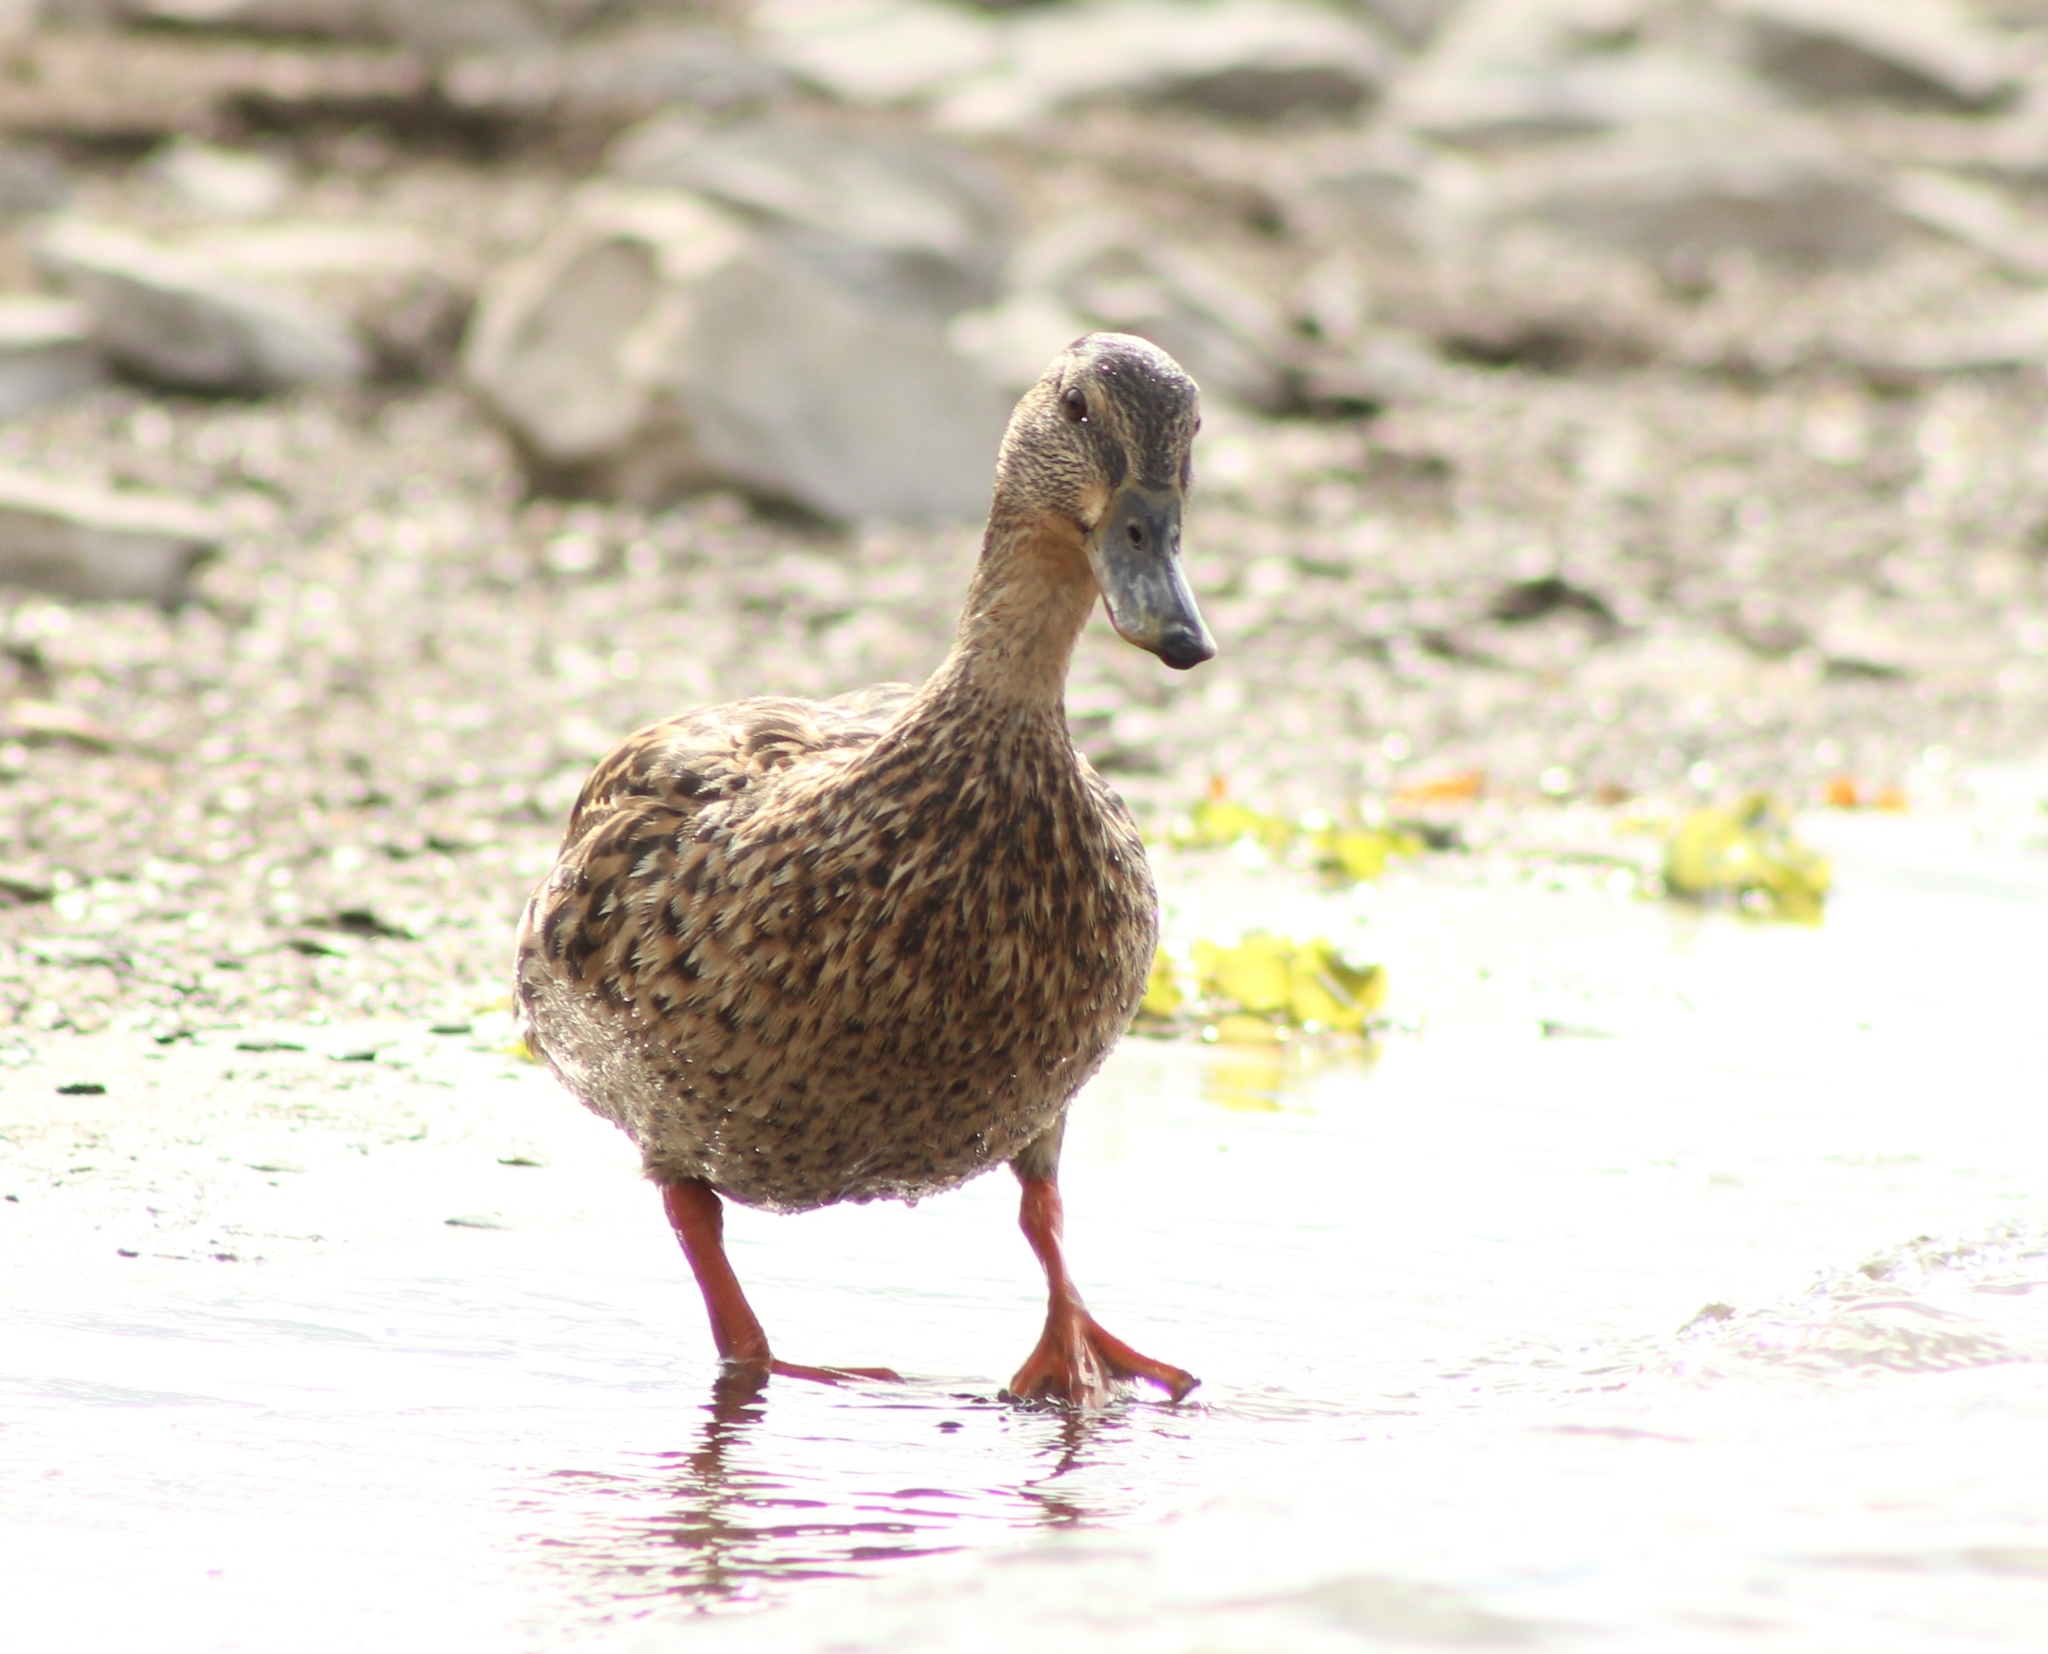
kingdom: Animalia
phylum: Chordata
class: Aves
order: Anseriformes
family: Anatidae
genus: Anas
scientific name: Anas platyrhynchos
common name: Mallard
